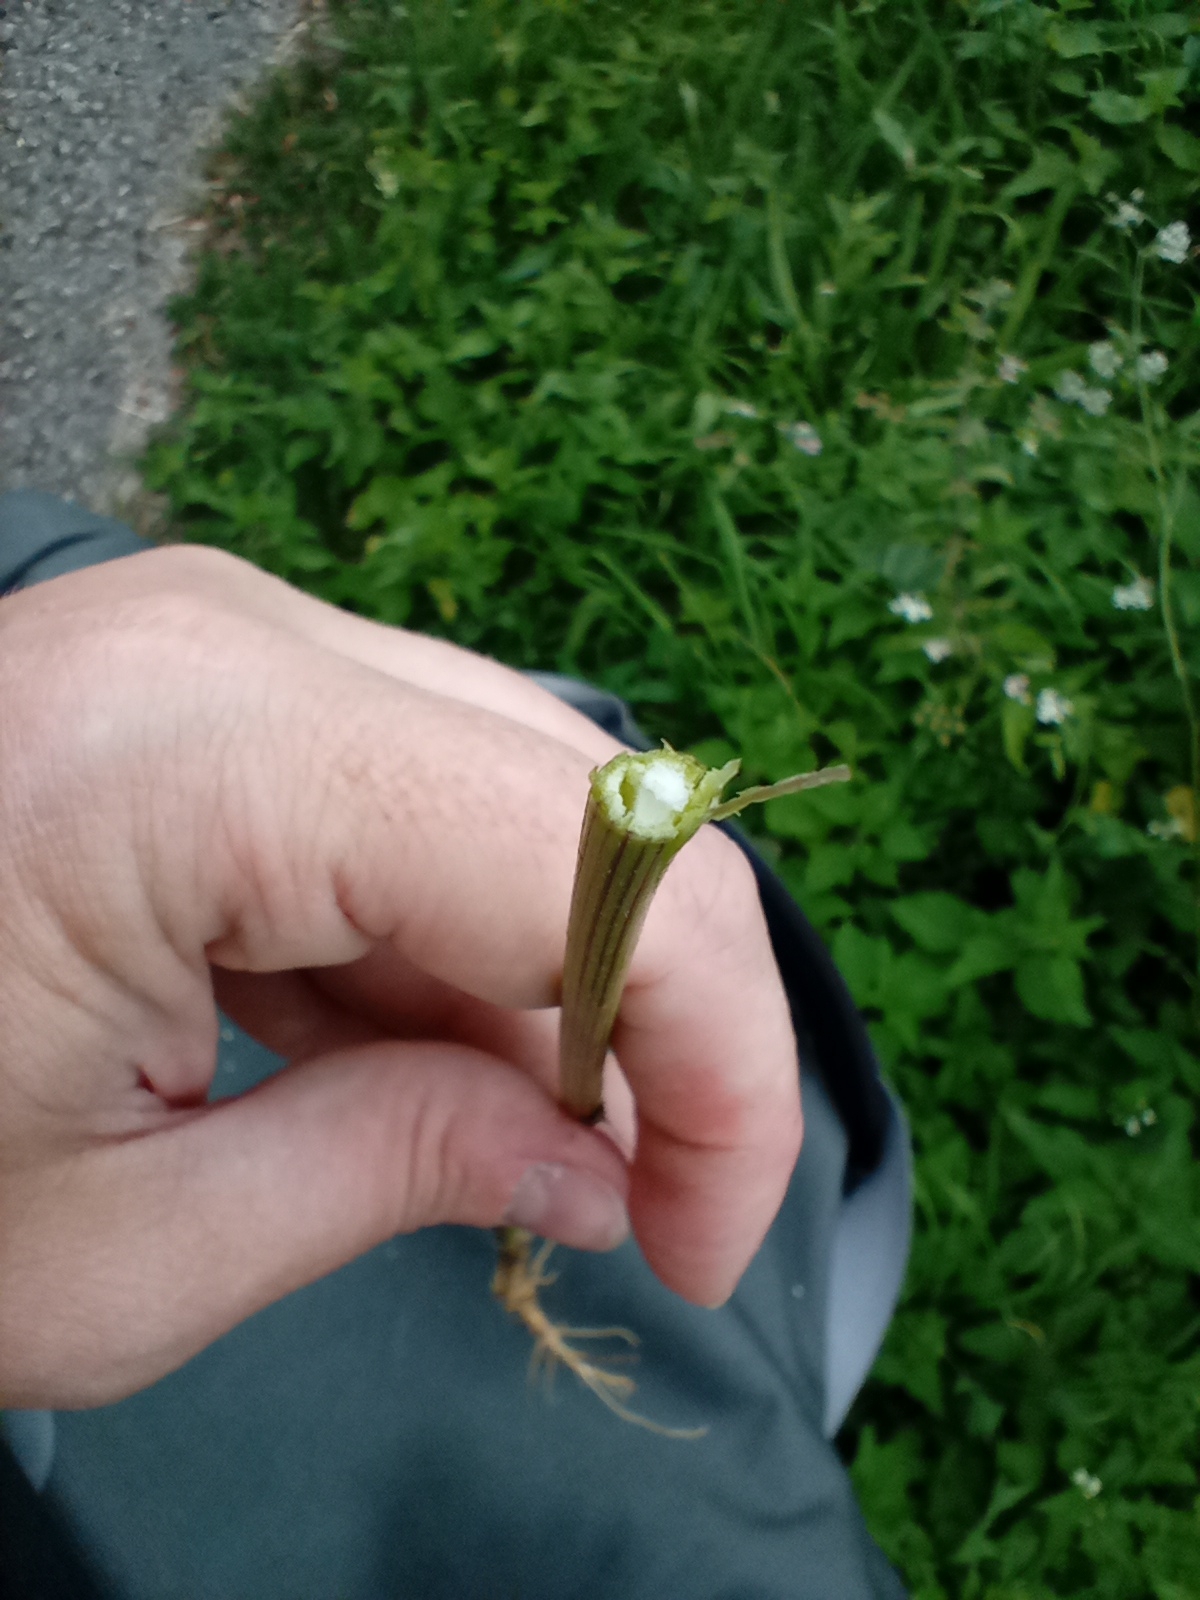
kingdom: Plantae
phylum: Tracheophyta
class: Magnoliopsida
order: Apiales
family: Apiaceae
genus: Torilis
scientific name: Torilis japonica
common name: Upright hedge-parsley
